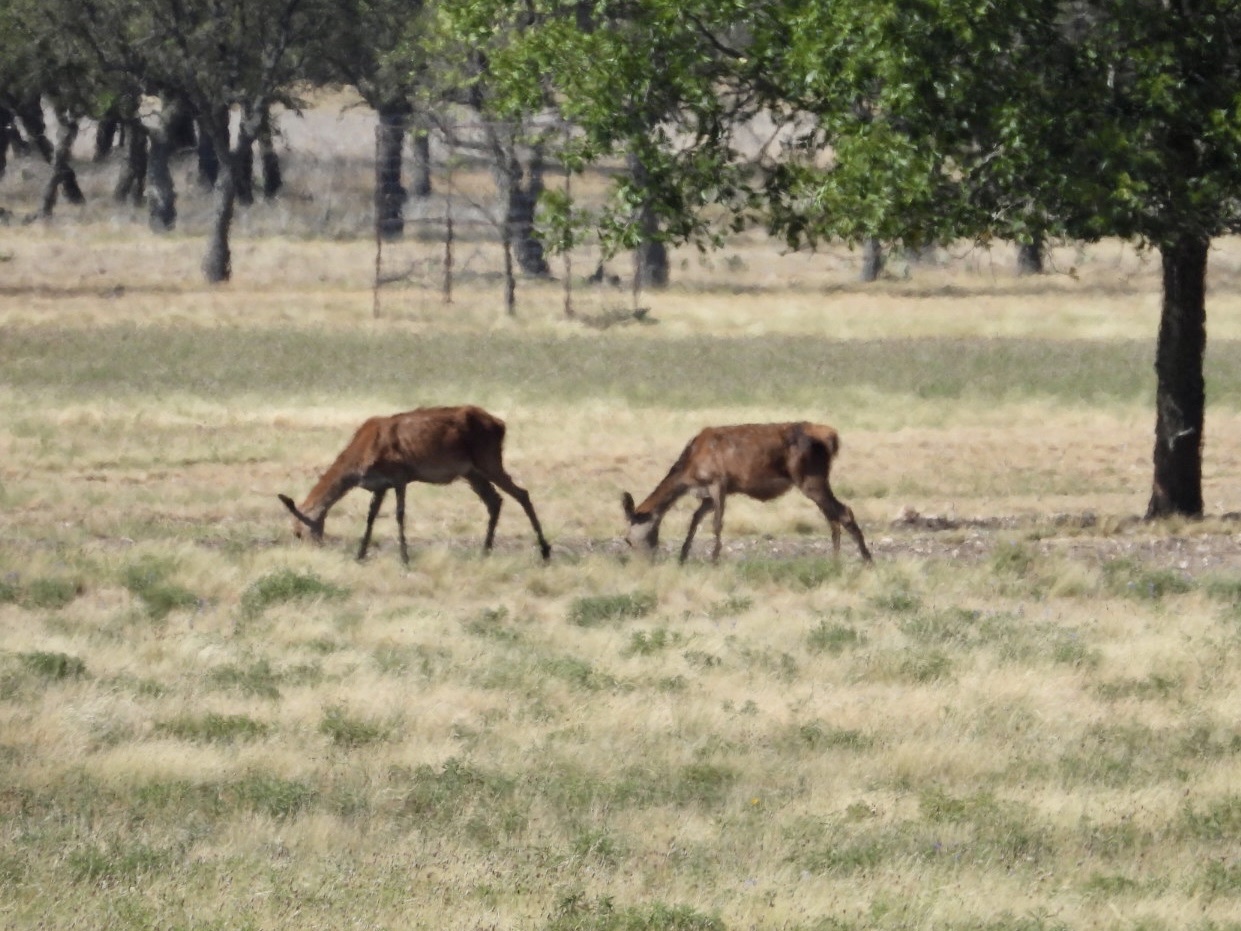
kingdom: Animalia
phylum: Chordata
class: Mammalia
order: Artiodactyla
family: Cervidae
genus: Cervus
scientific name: Cervus elaphus
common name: Red deer
